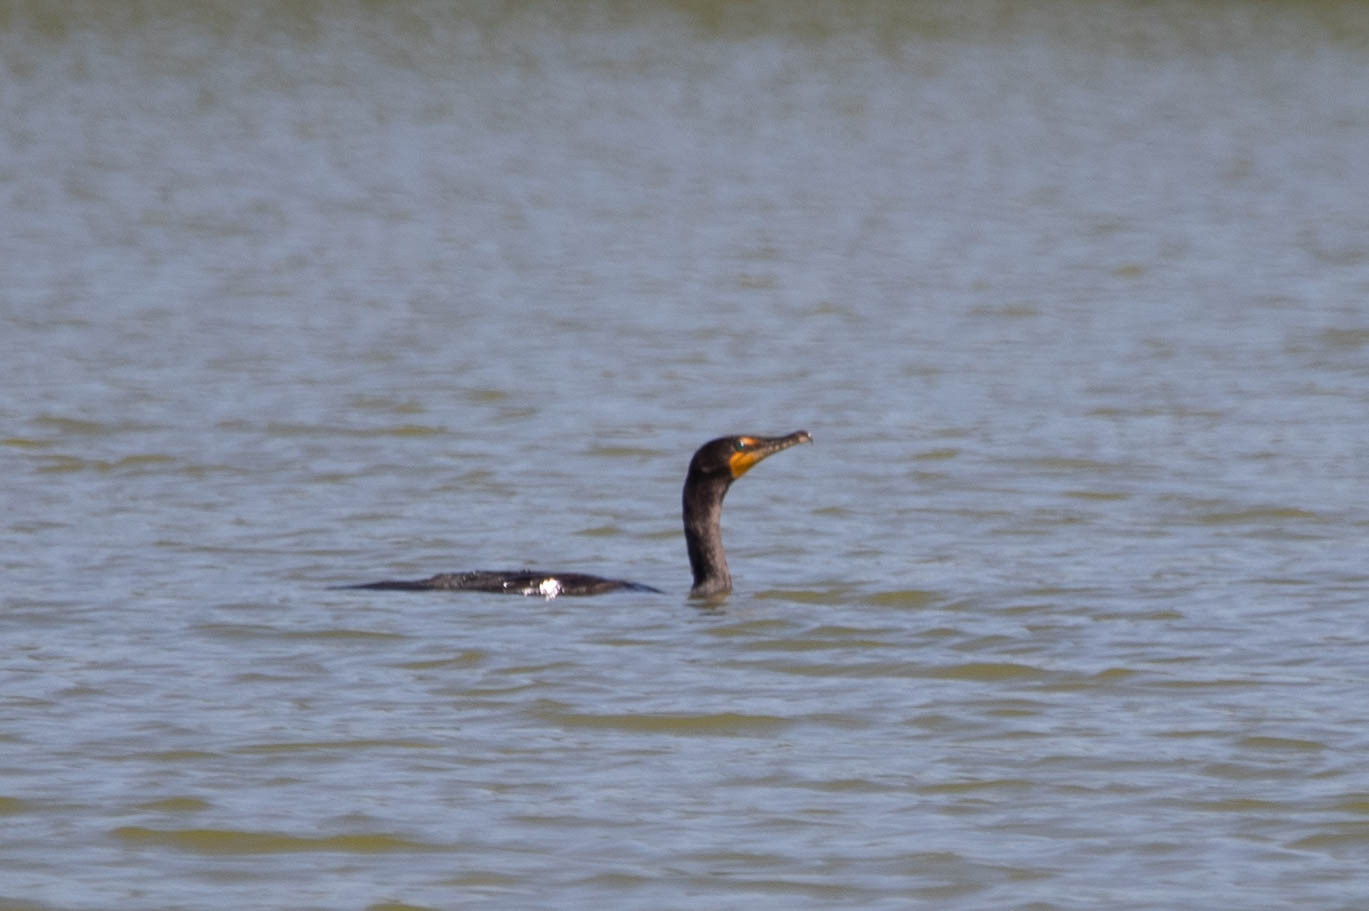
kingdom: Animalia
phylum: Chordata
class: Aves
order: Suliformes
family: Phalacrocoracidae
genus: Phalacrocorax
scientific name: Phalacrocorax auritus
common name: Double-crested cormorant
